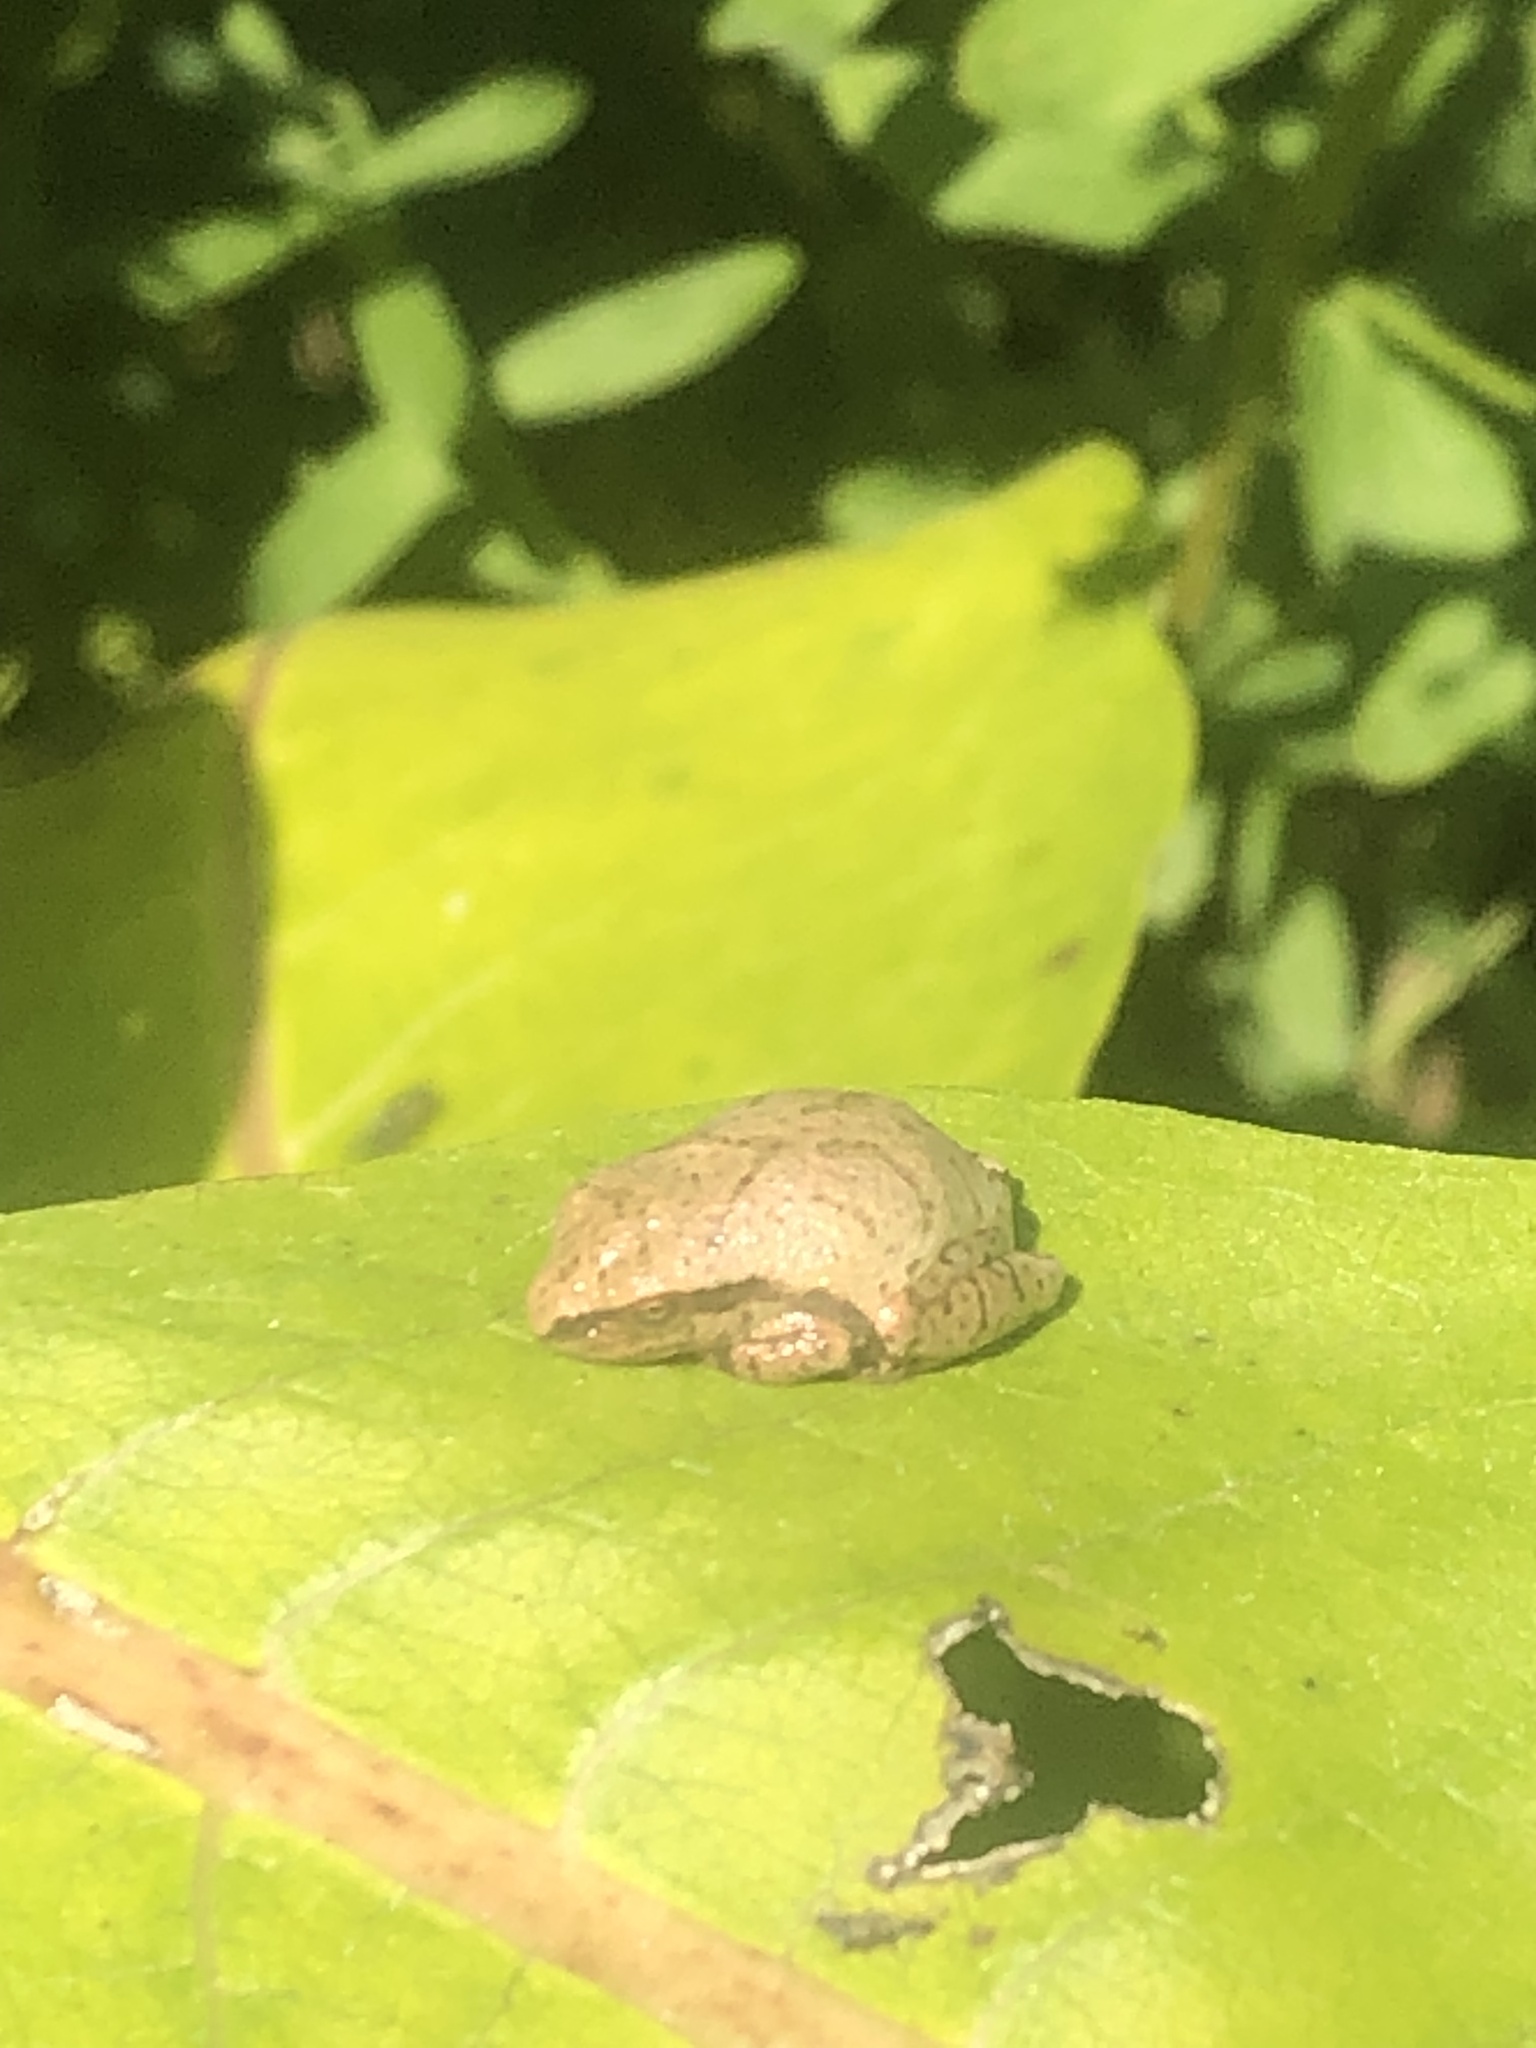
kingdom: Animalia
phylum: Chordata
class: Amphibia
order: Anura
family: Hylidae
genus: Pseudacris
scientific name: Pseudacris crucifer
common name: Spring peeper
